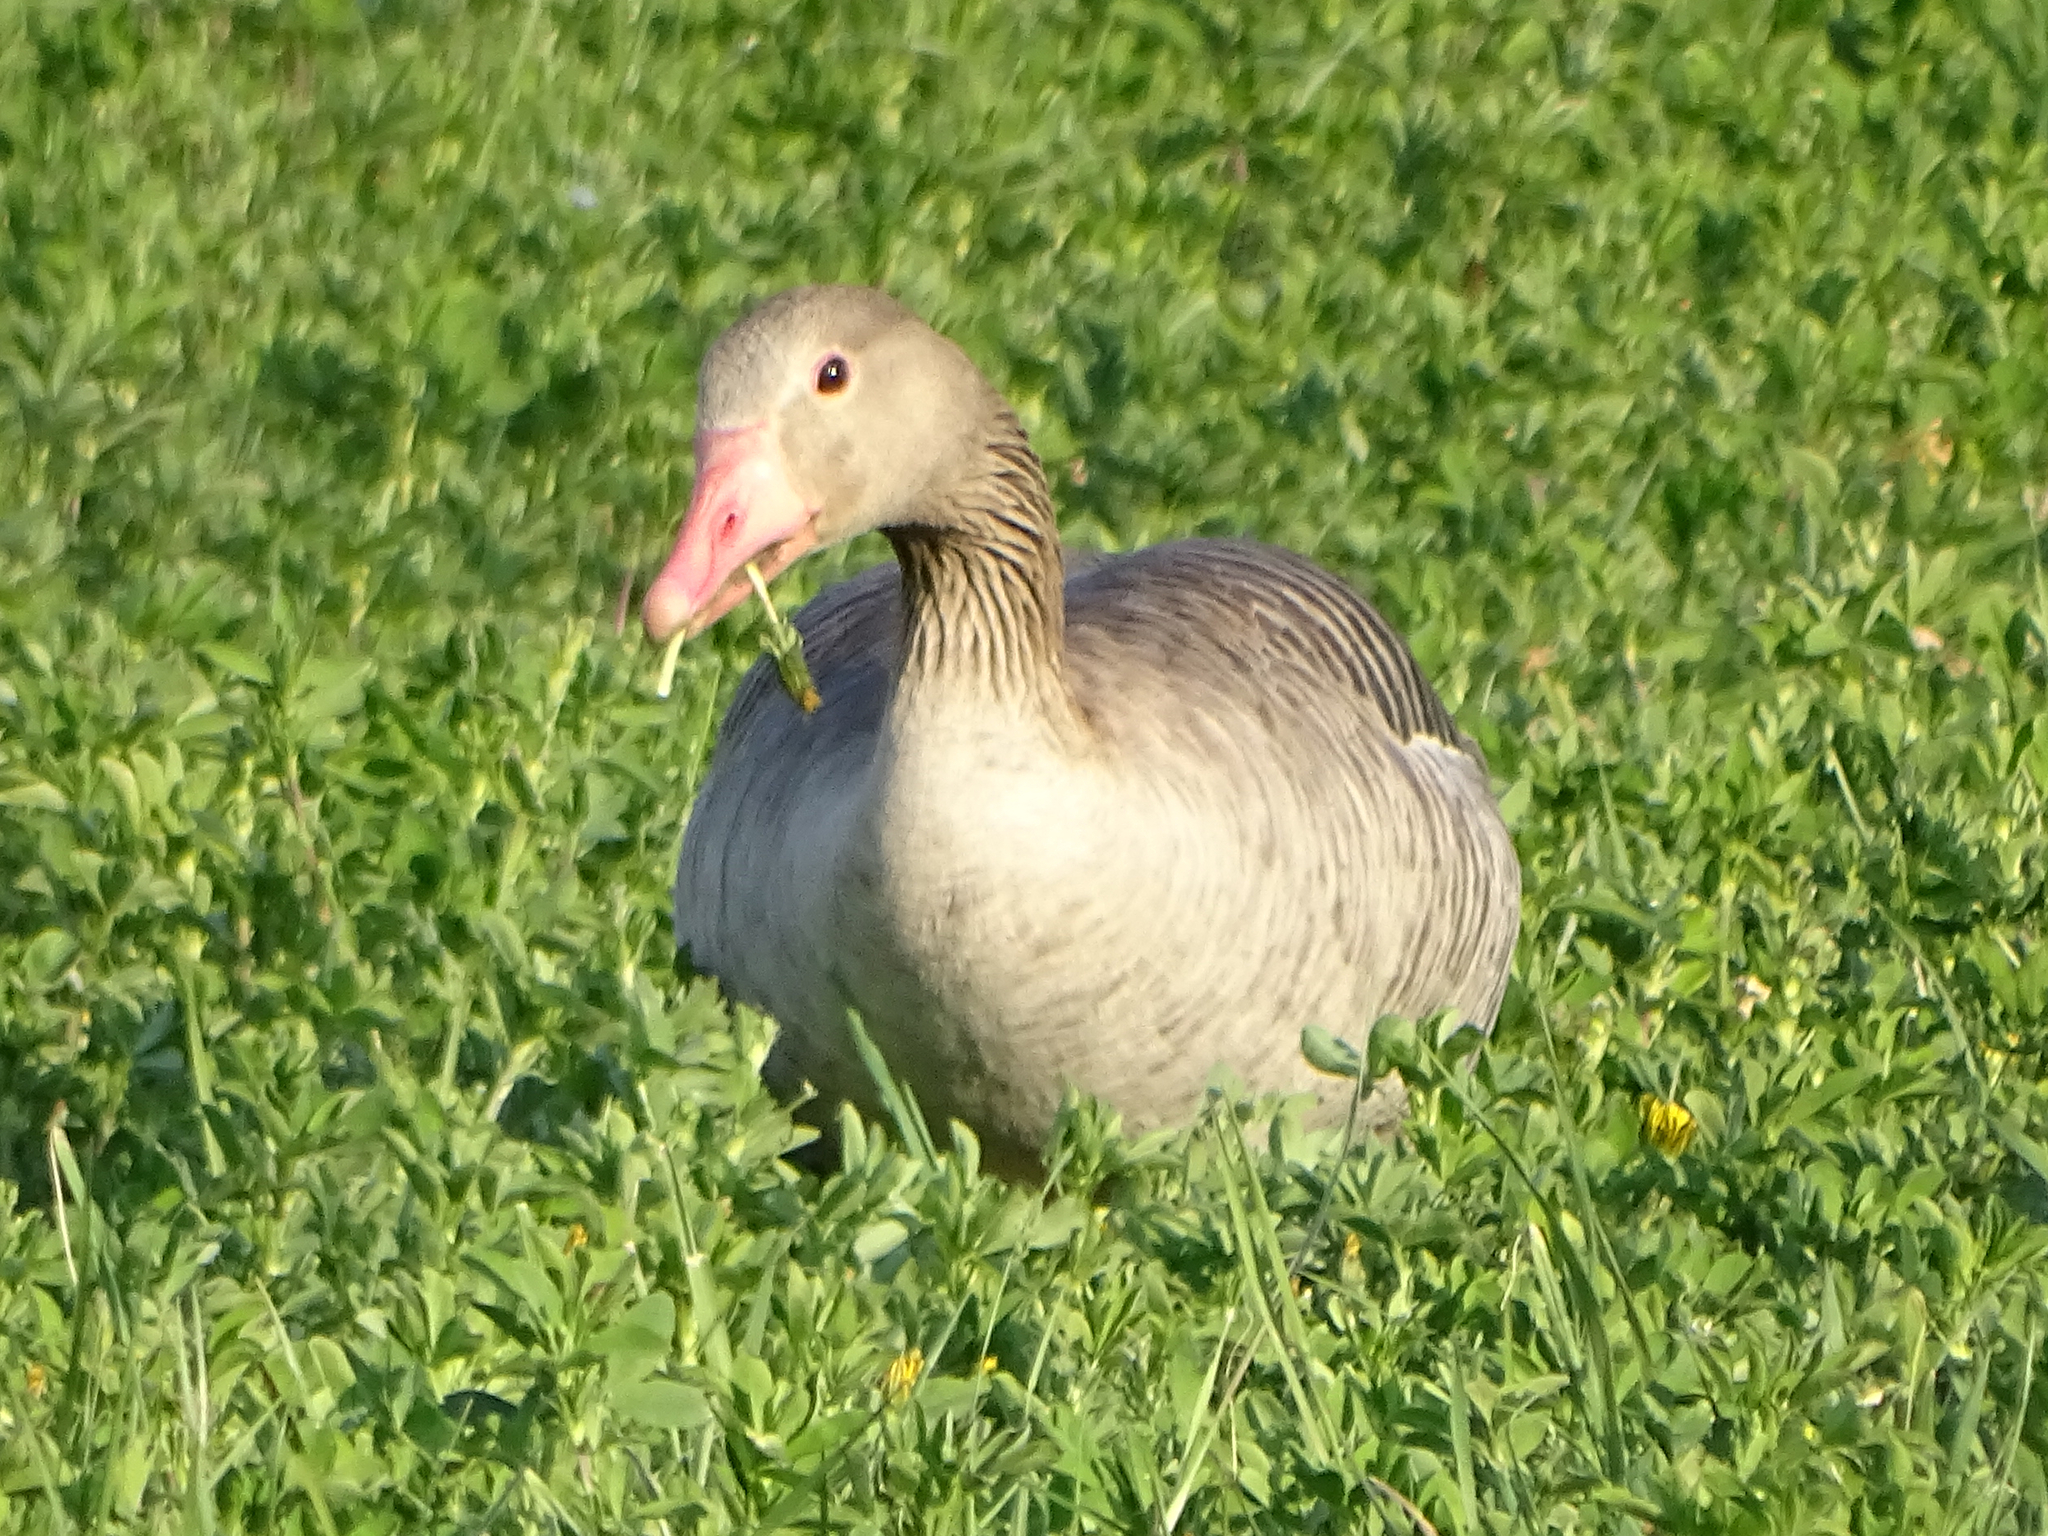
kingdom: Animalia
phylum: Chordata
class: Aves
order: Anseriformes
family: Anatidae
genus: Anser
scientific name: Anser anser
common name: Greylag goose
